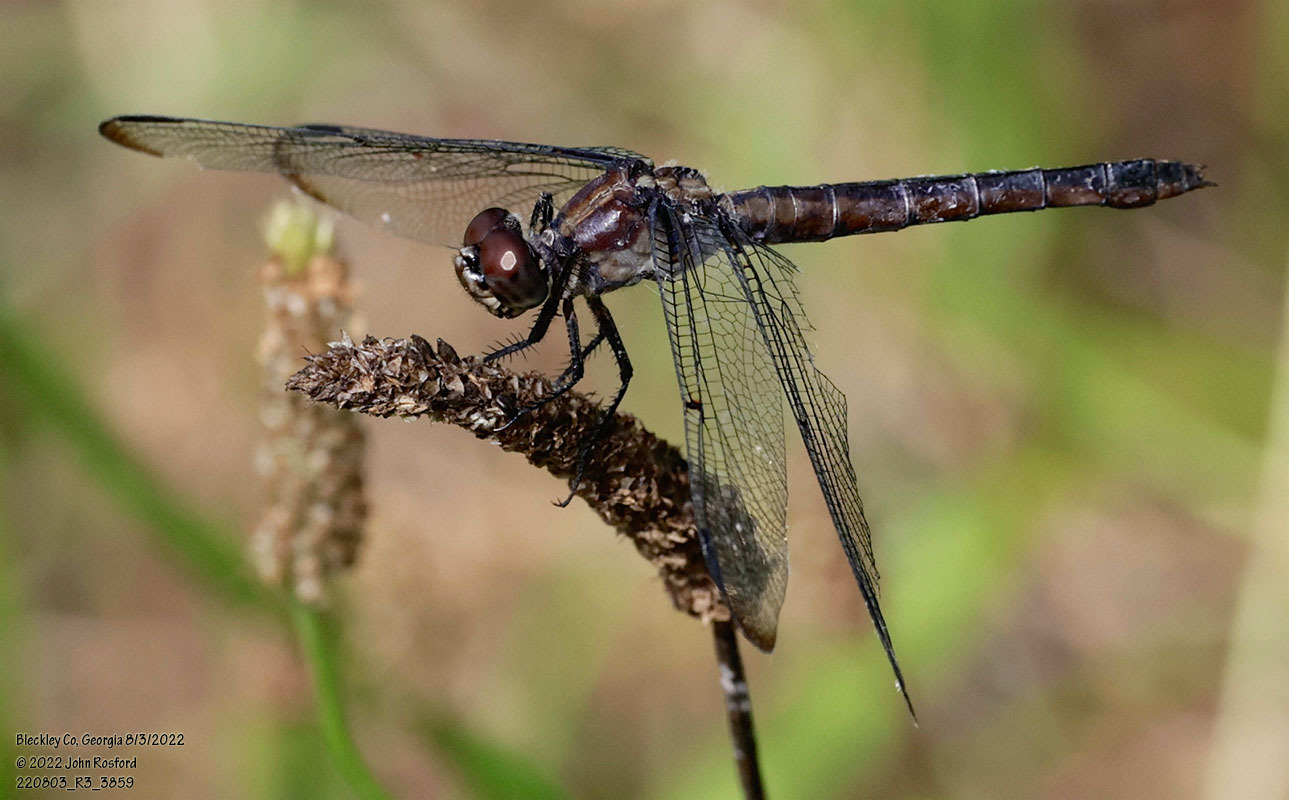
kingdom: Animalia
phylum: Arthropoda
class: Insecta
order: Odonata
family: Libellulidae
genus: Libellula
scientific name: Libellula incesta
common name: Slaty skimmer
